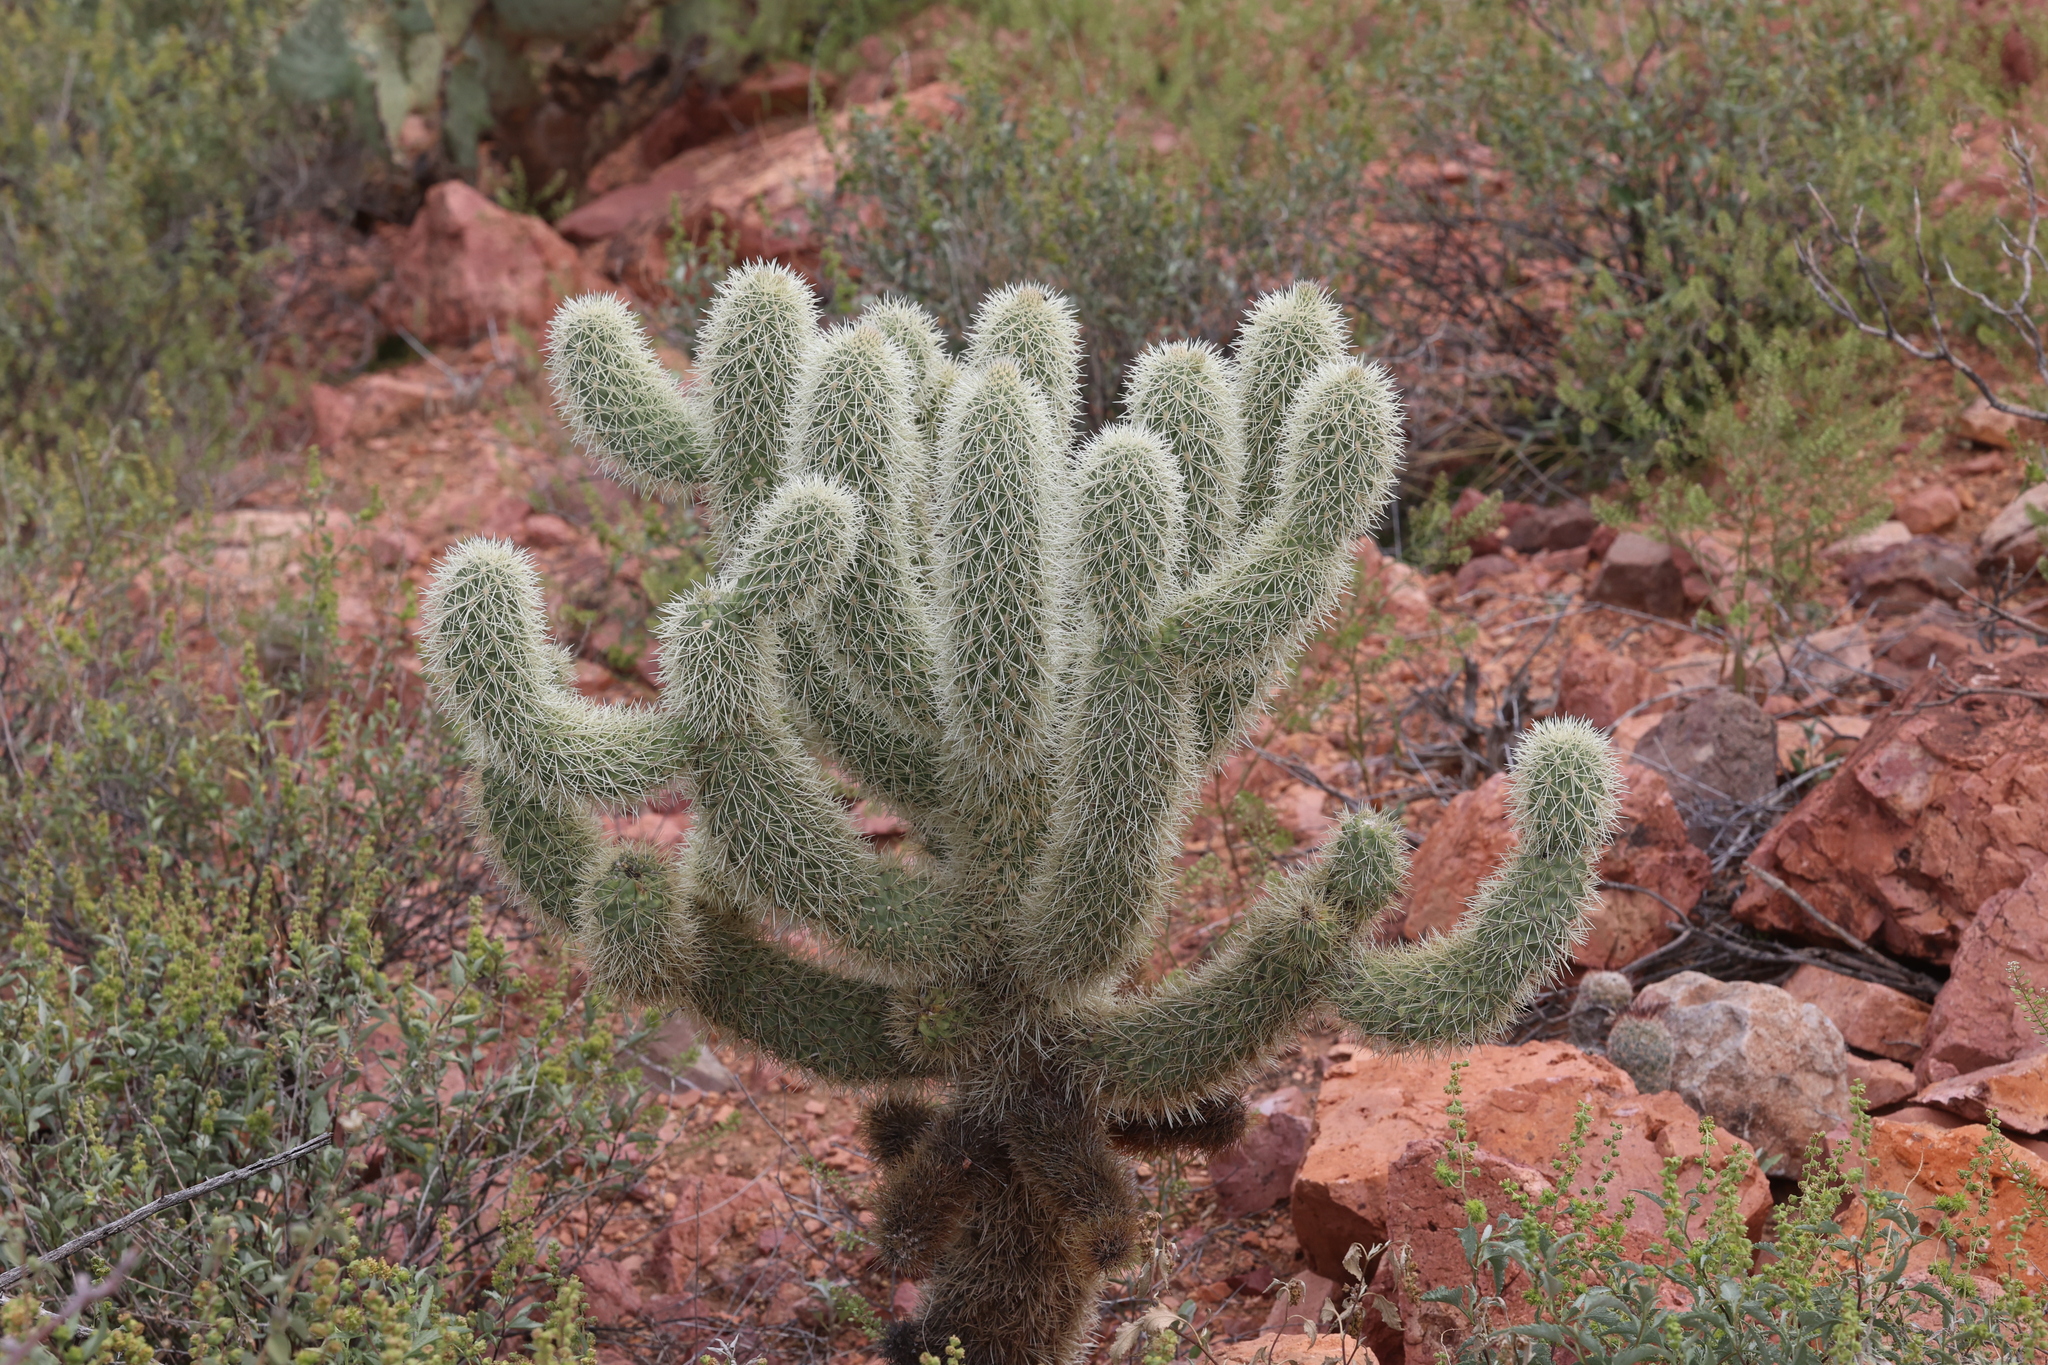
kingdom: Plantae
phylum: Tracheophyta
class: Magnoliopsida
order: Caryophyllales
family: Cactaceae
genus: Cylindropuntia
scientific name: Cylindropuntia fosbergii
